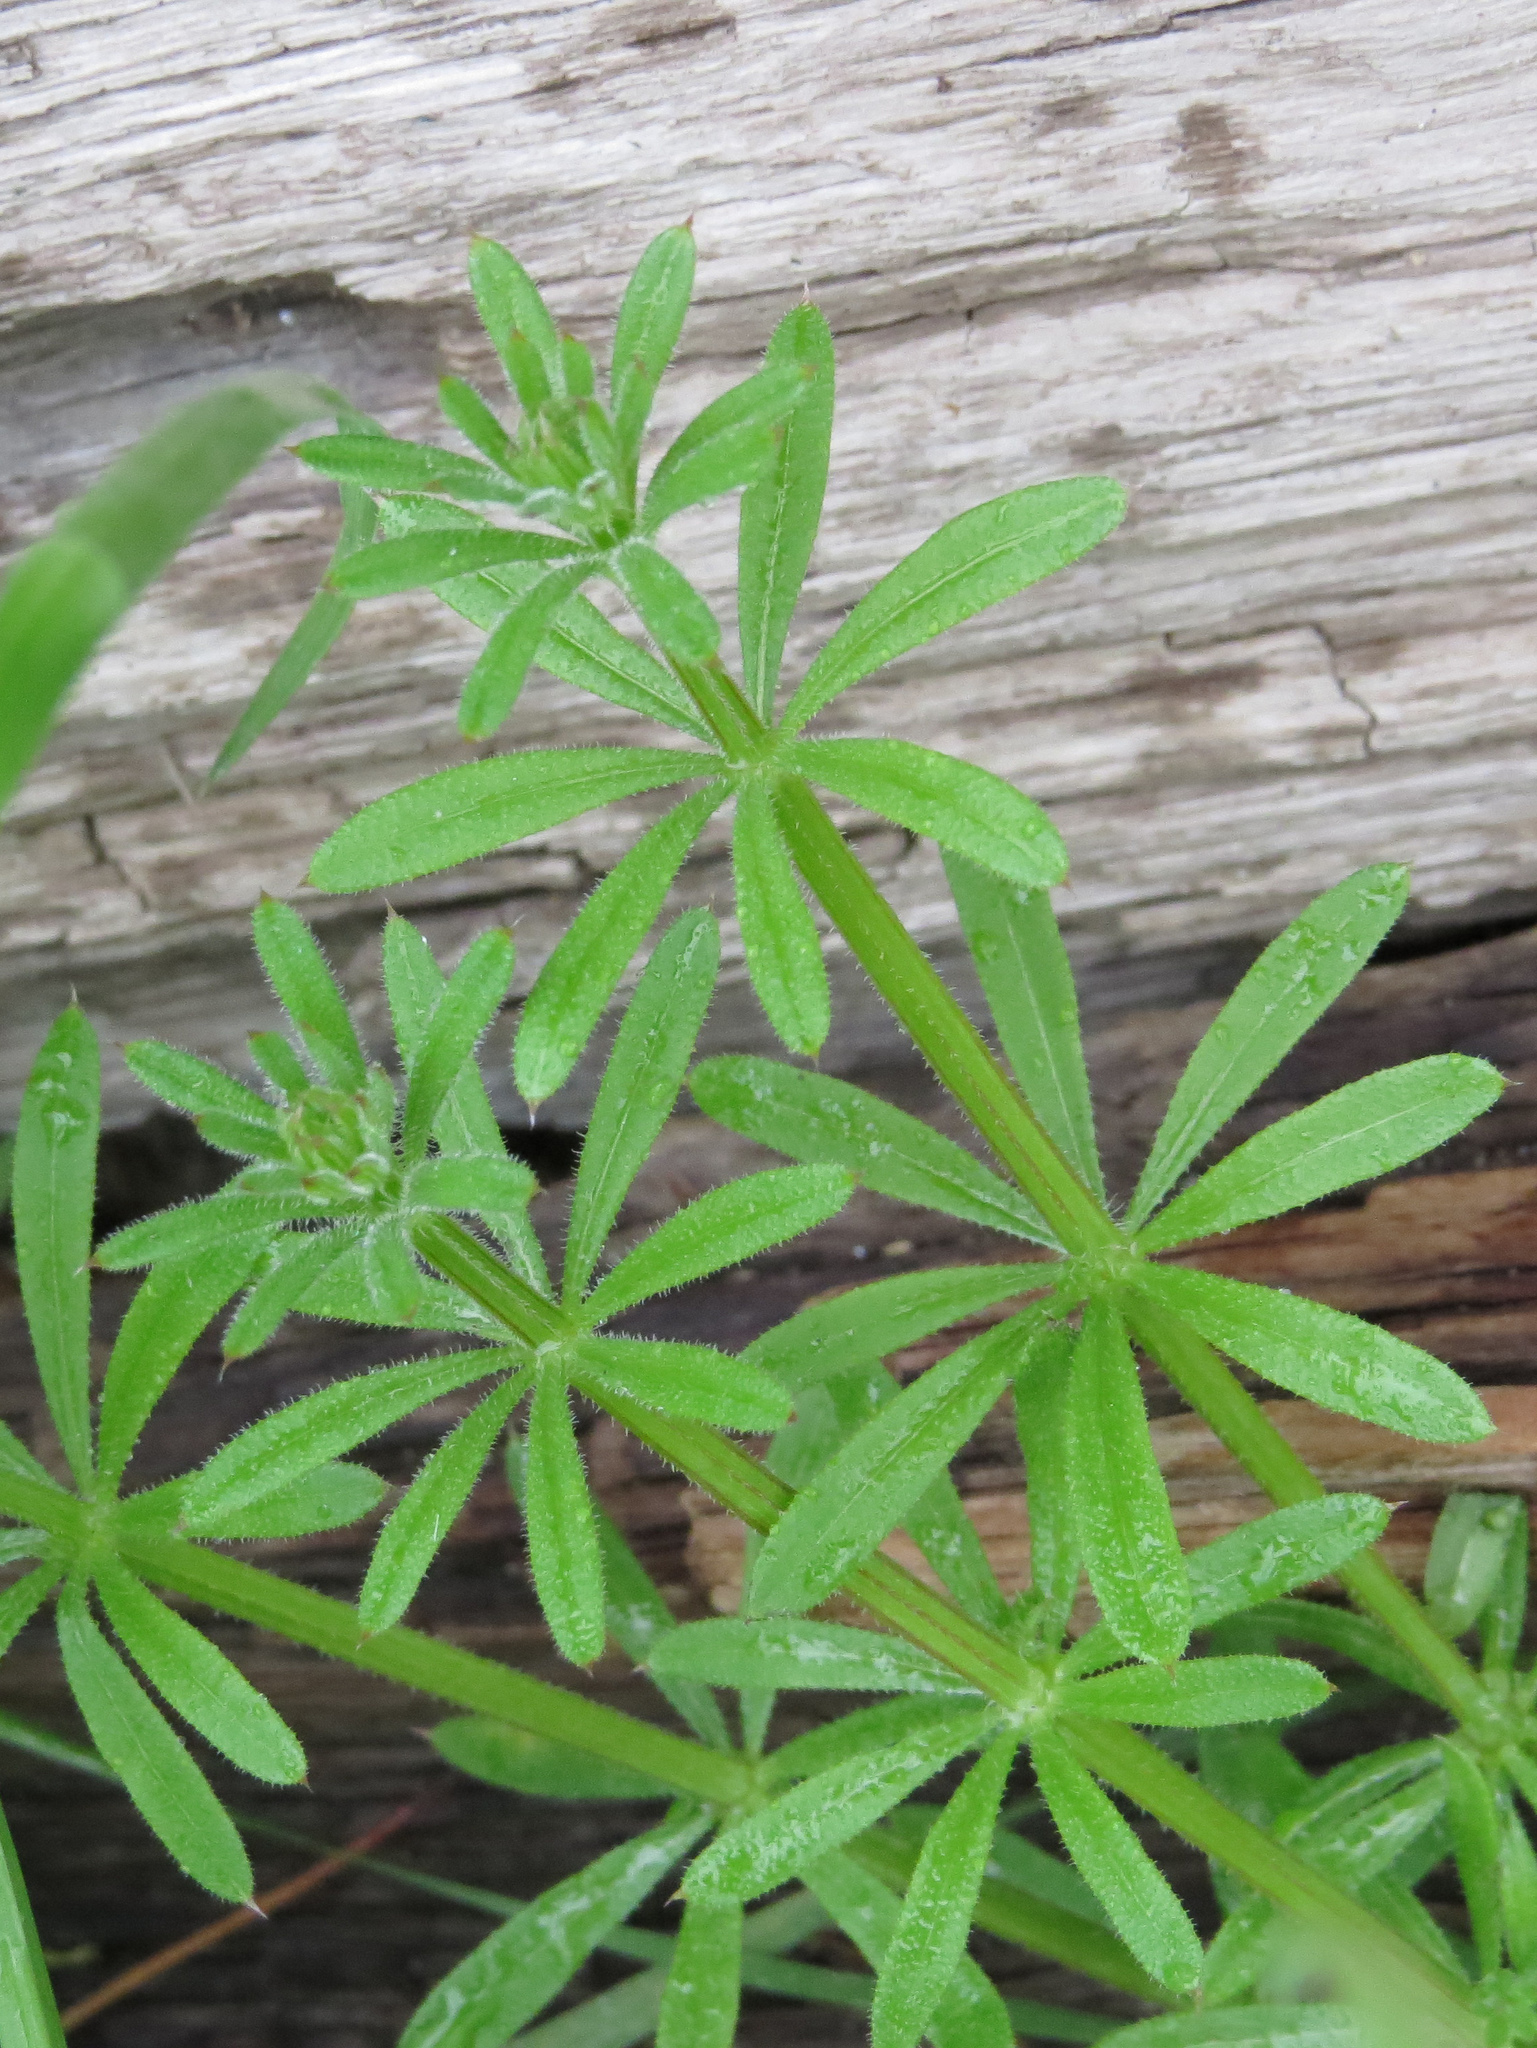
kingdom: Plantae
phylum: Tracheophyta
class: Magnoliopsida
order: Gentianales
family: Rubiaceae
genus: Galium
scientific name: Galium aparine
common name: Cleavers
